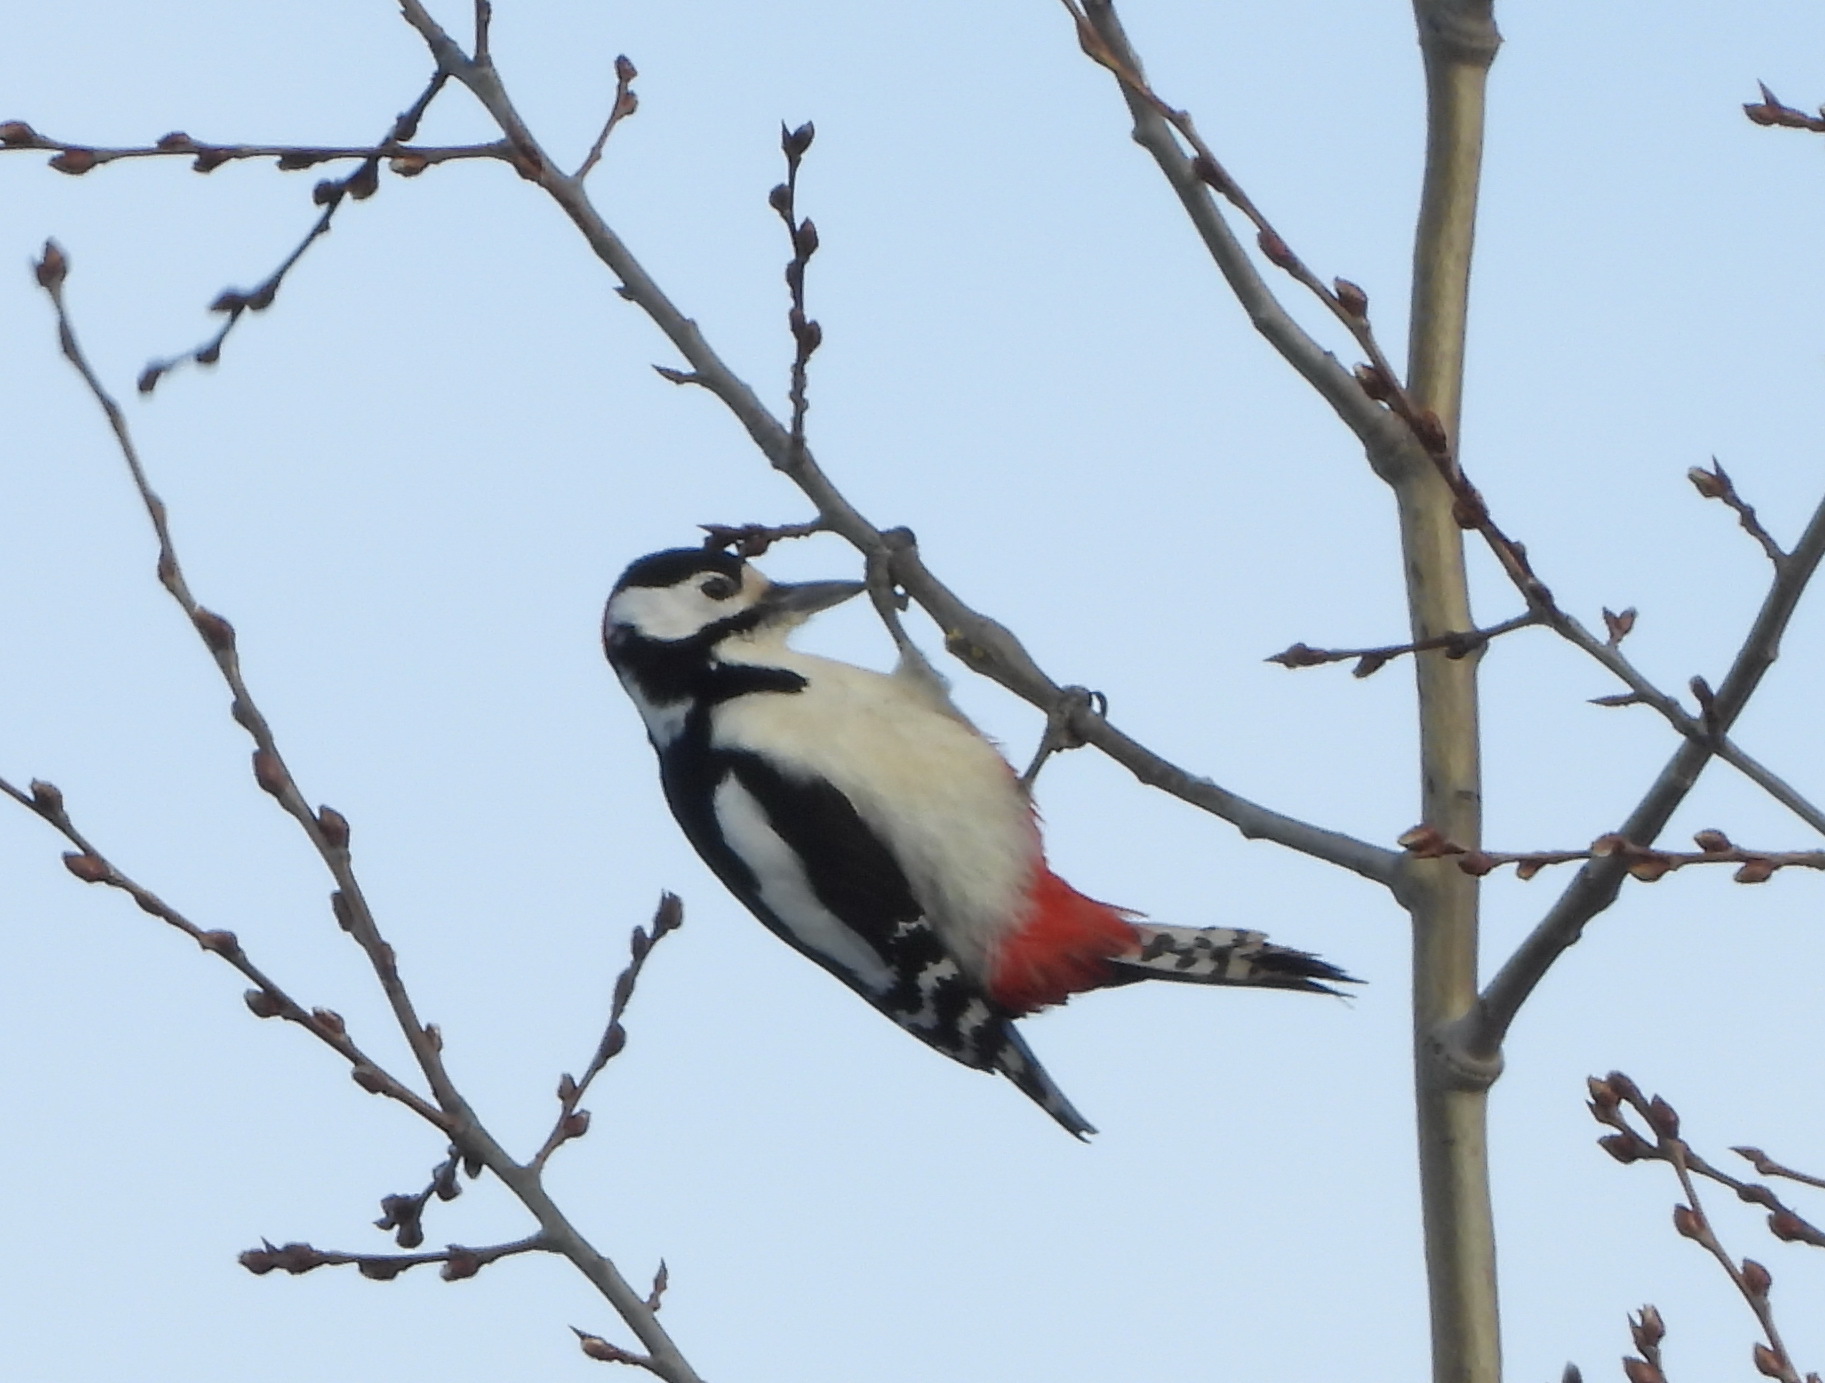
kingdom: Animalia
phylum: Chordata
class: Aves
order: Piciformes
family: Picidae
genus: Dendrocopos
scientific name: Dendrocopos major
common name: Great spotted woodpecker
